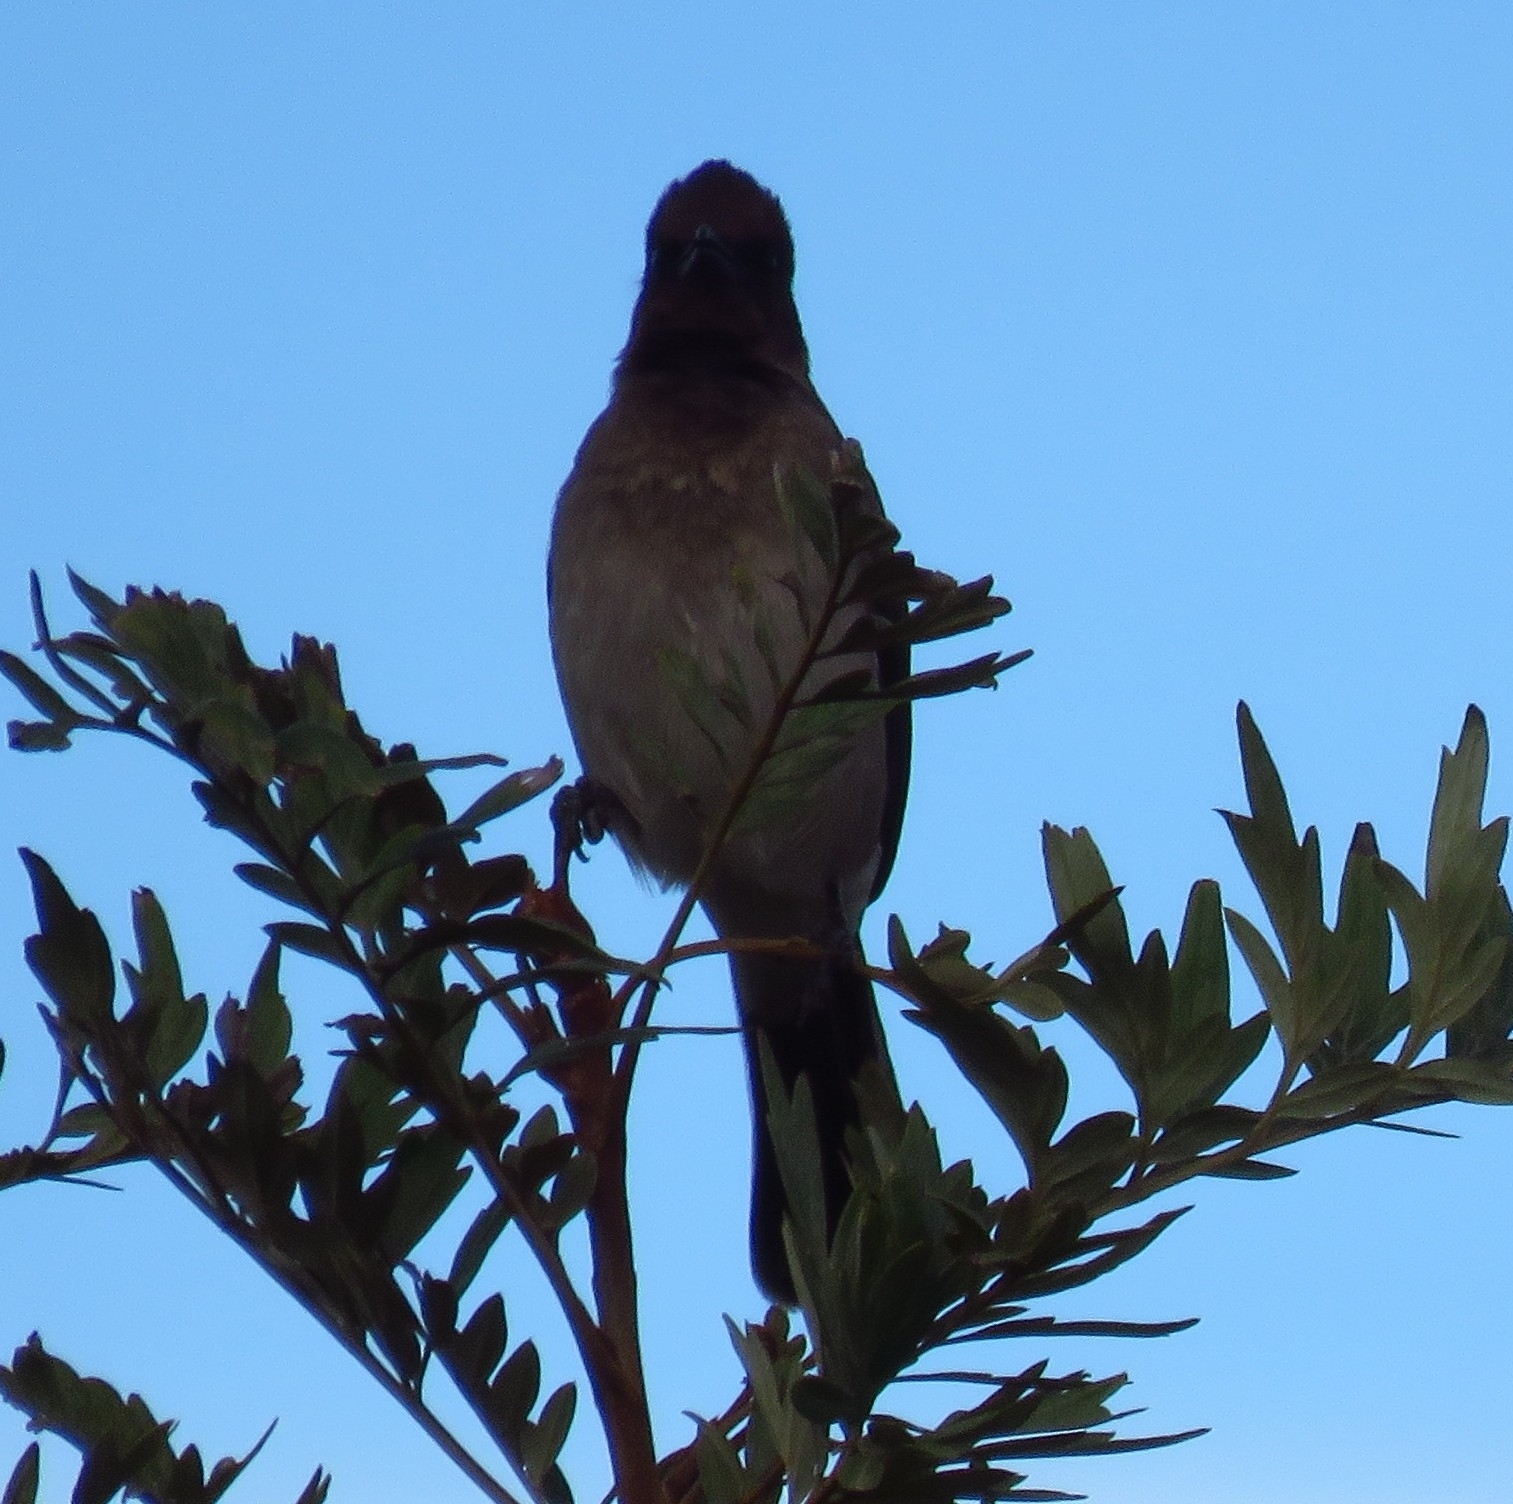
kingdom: Animalia
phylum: Chordata
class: Aves
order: Passeriformes
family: Pycnonotidae
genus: Pycnonotus
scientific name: Pycnonotus barbatus
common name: Common bulbul
